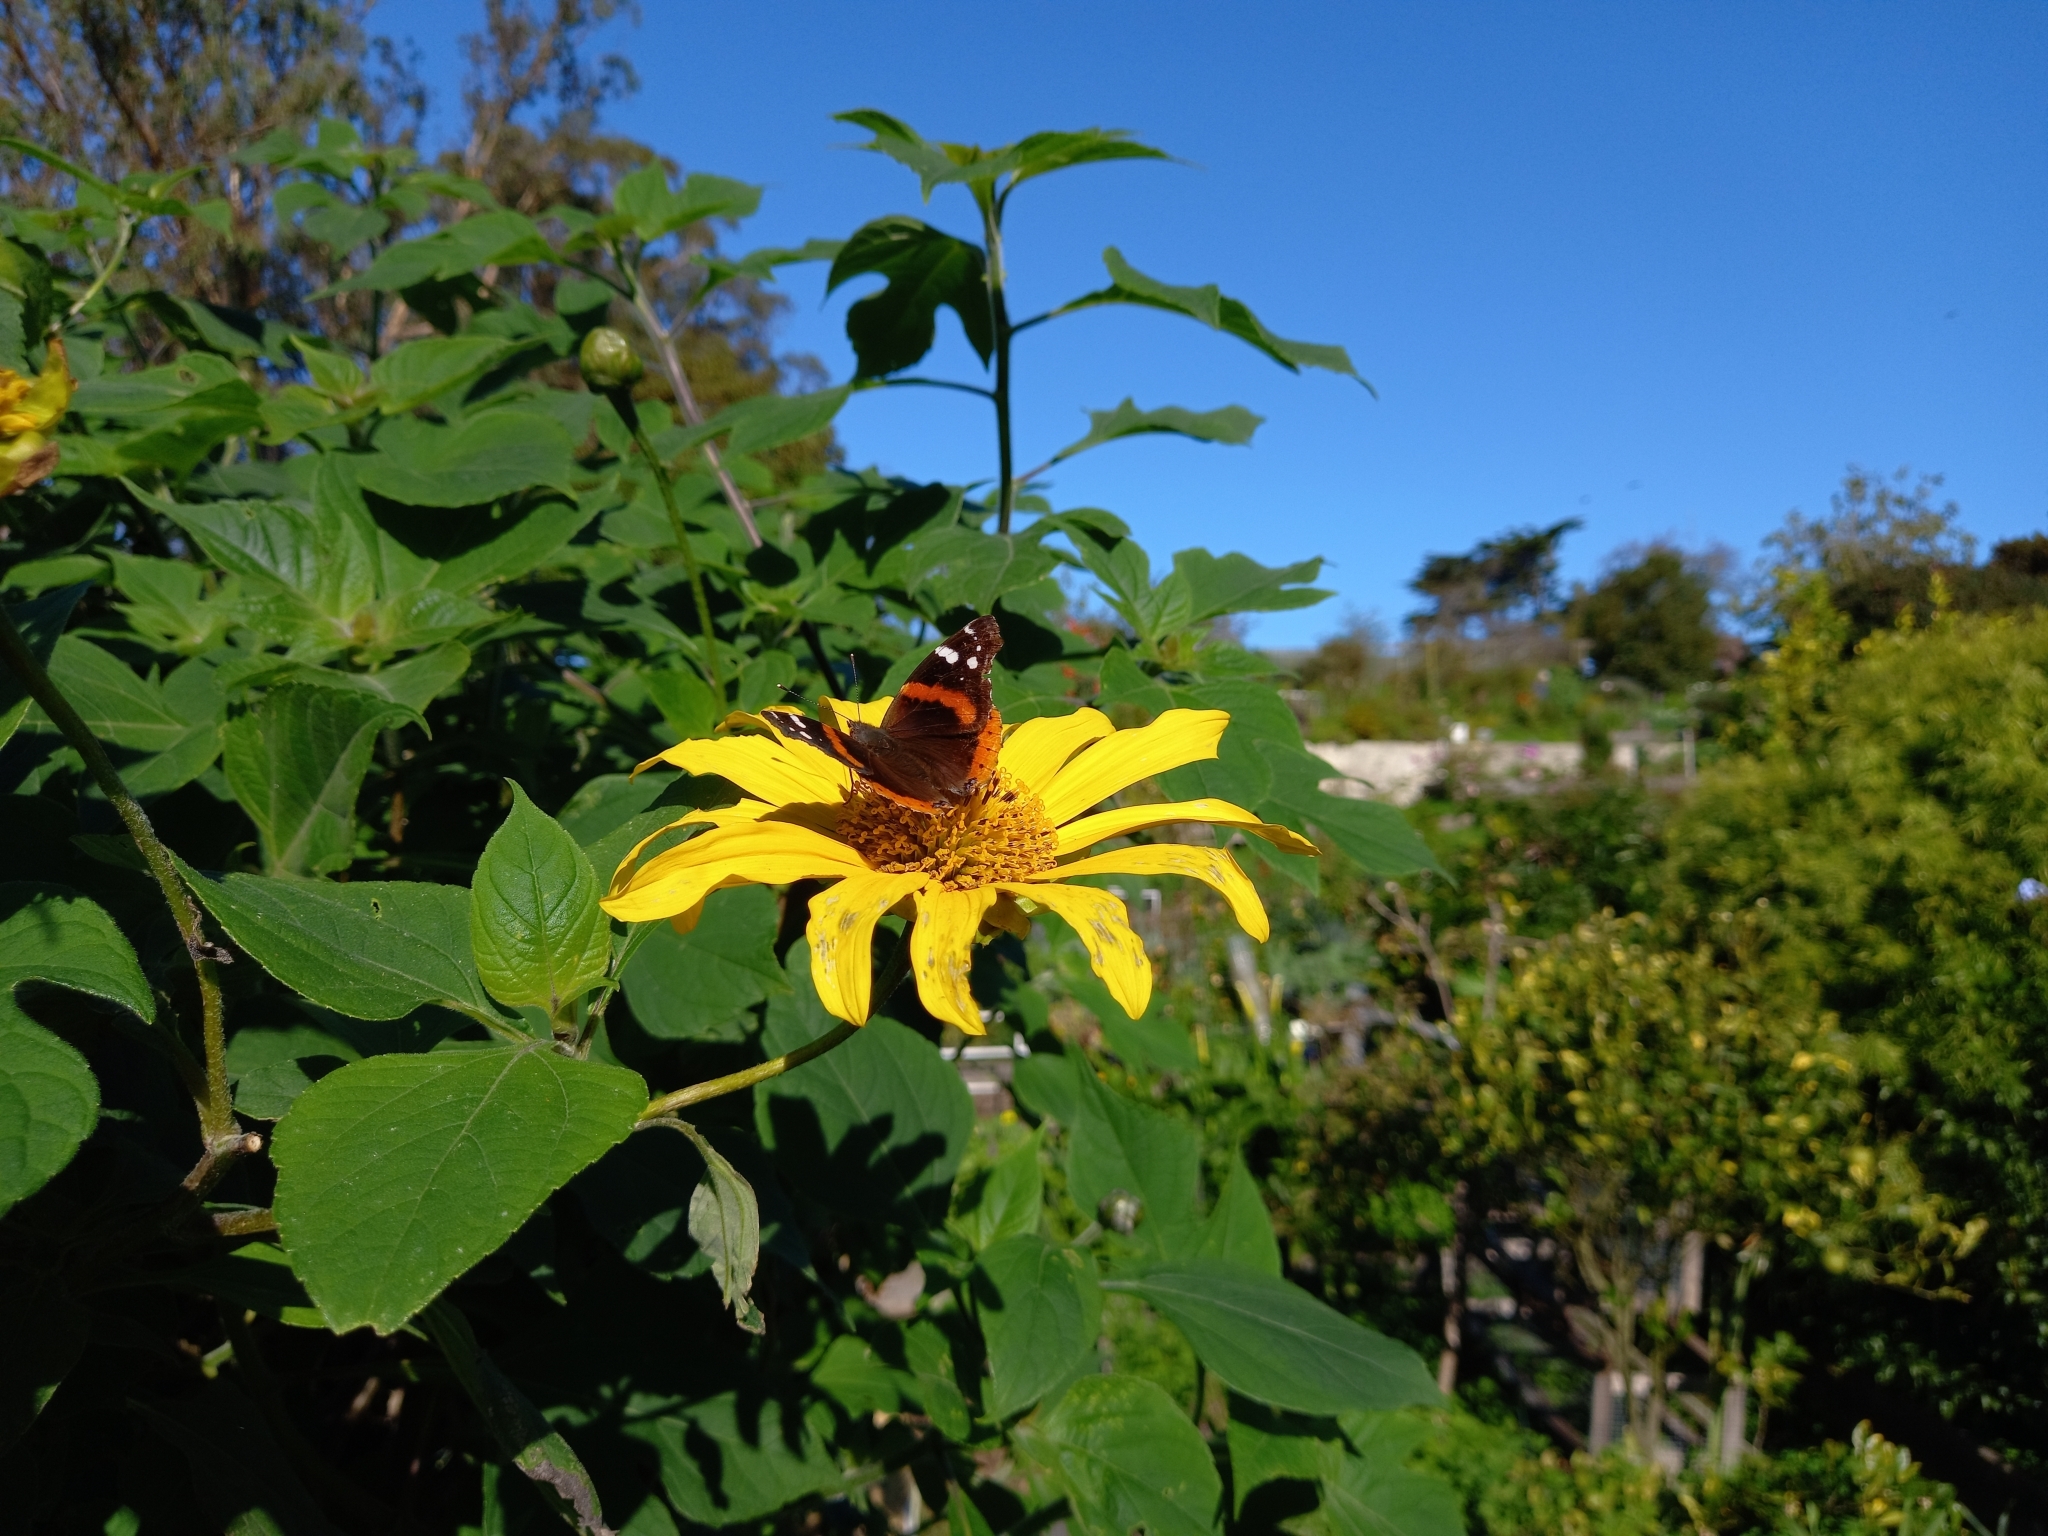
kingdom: Animalia
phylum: Arthropoda
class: Insecta
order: Lepidoptera
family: Nymphalidae
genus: Vanessa
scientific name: Vanessa atalanta
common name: Red admiral
